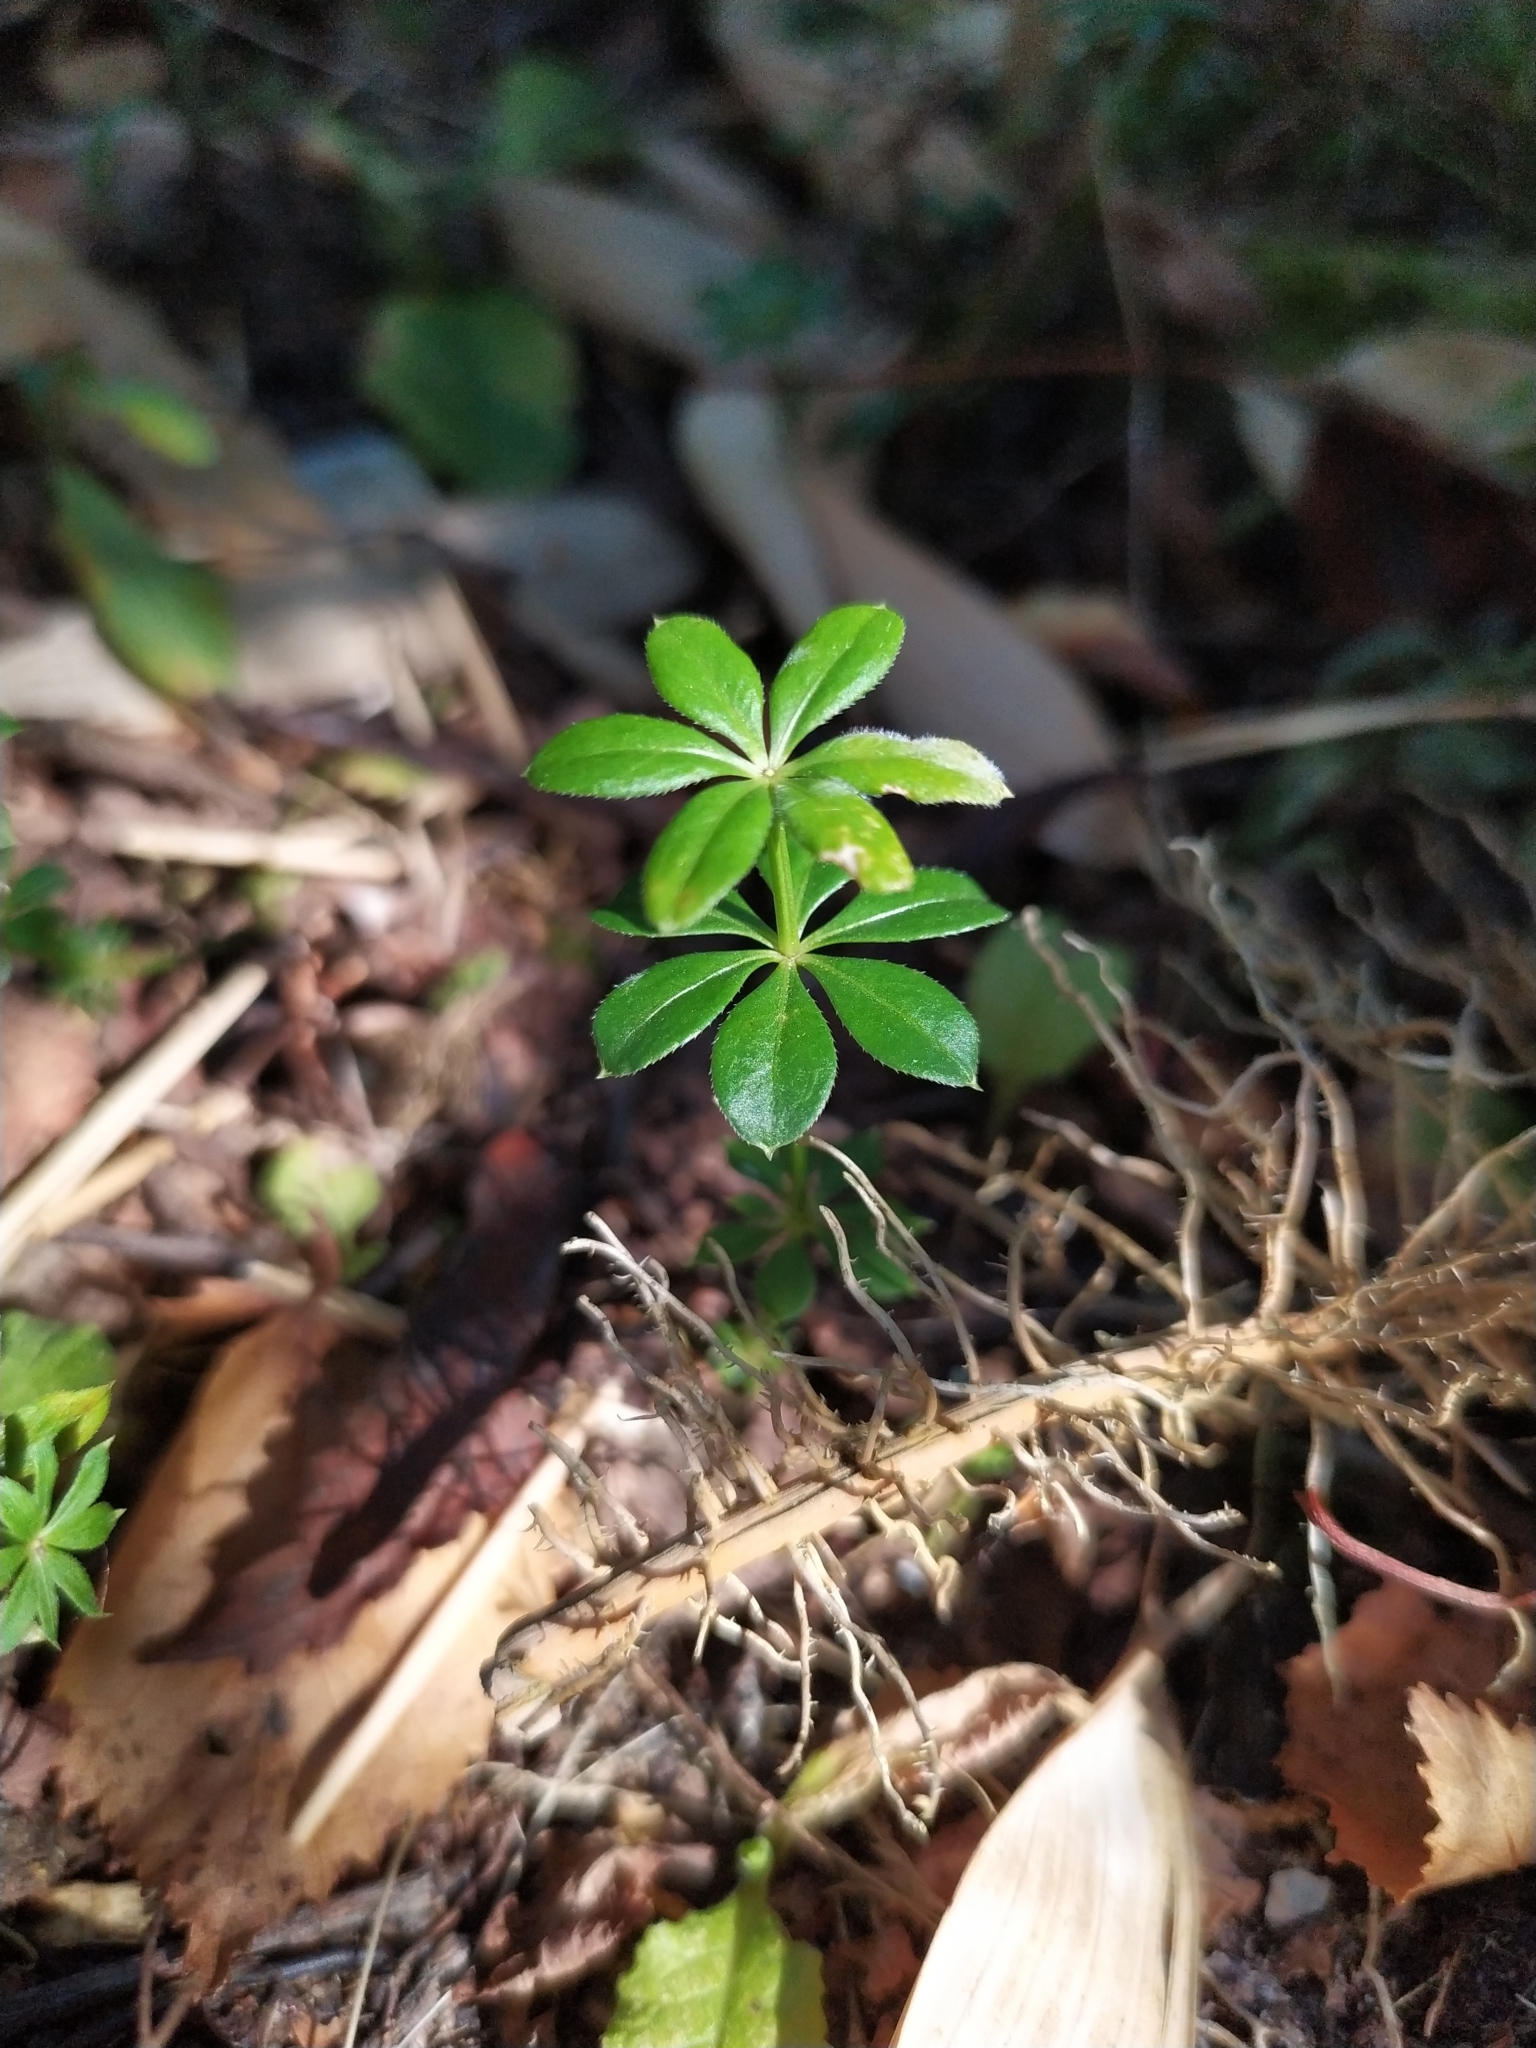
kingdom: Plantae
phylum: Tracheophyta
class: Magnoliopsida
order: Gentianales
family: Rubiaceae
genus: Galium
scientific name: Galium odoratum
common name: Sweet woodruff
